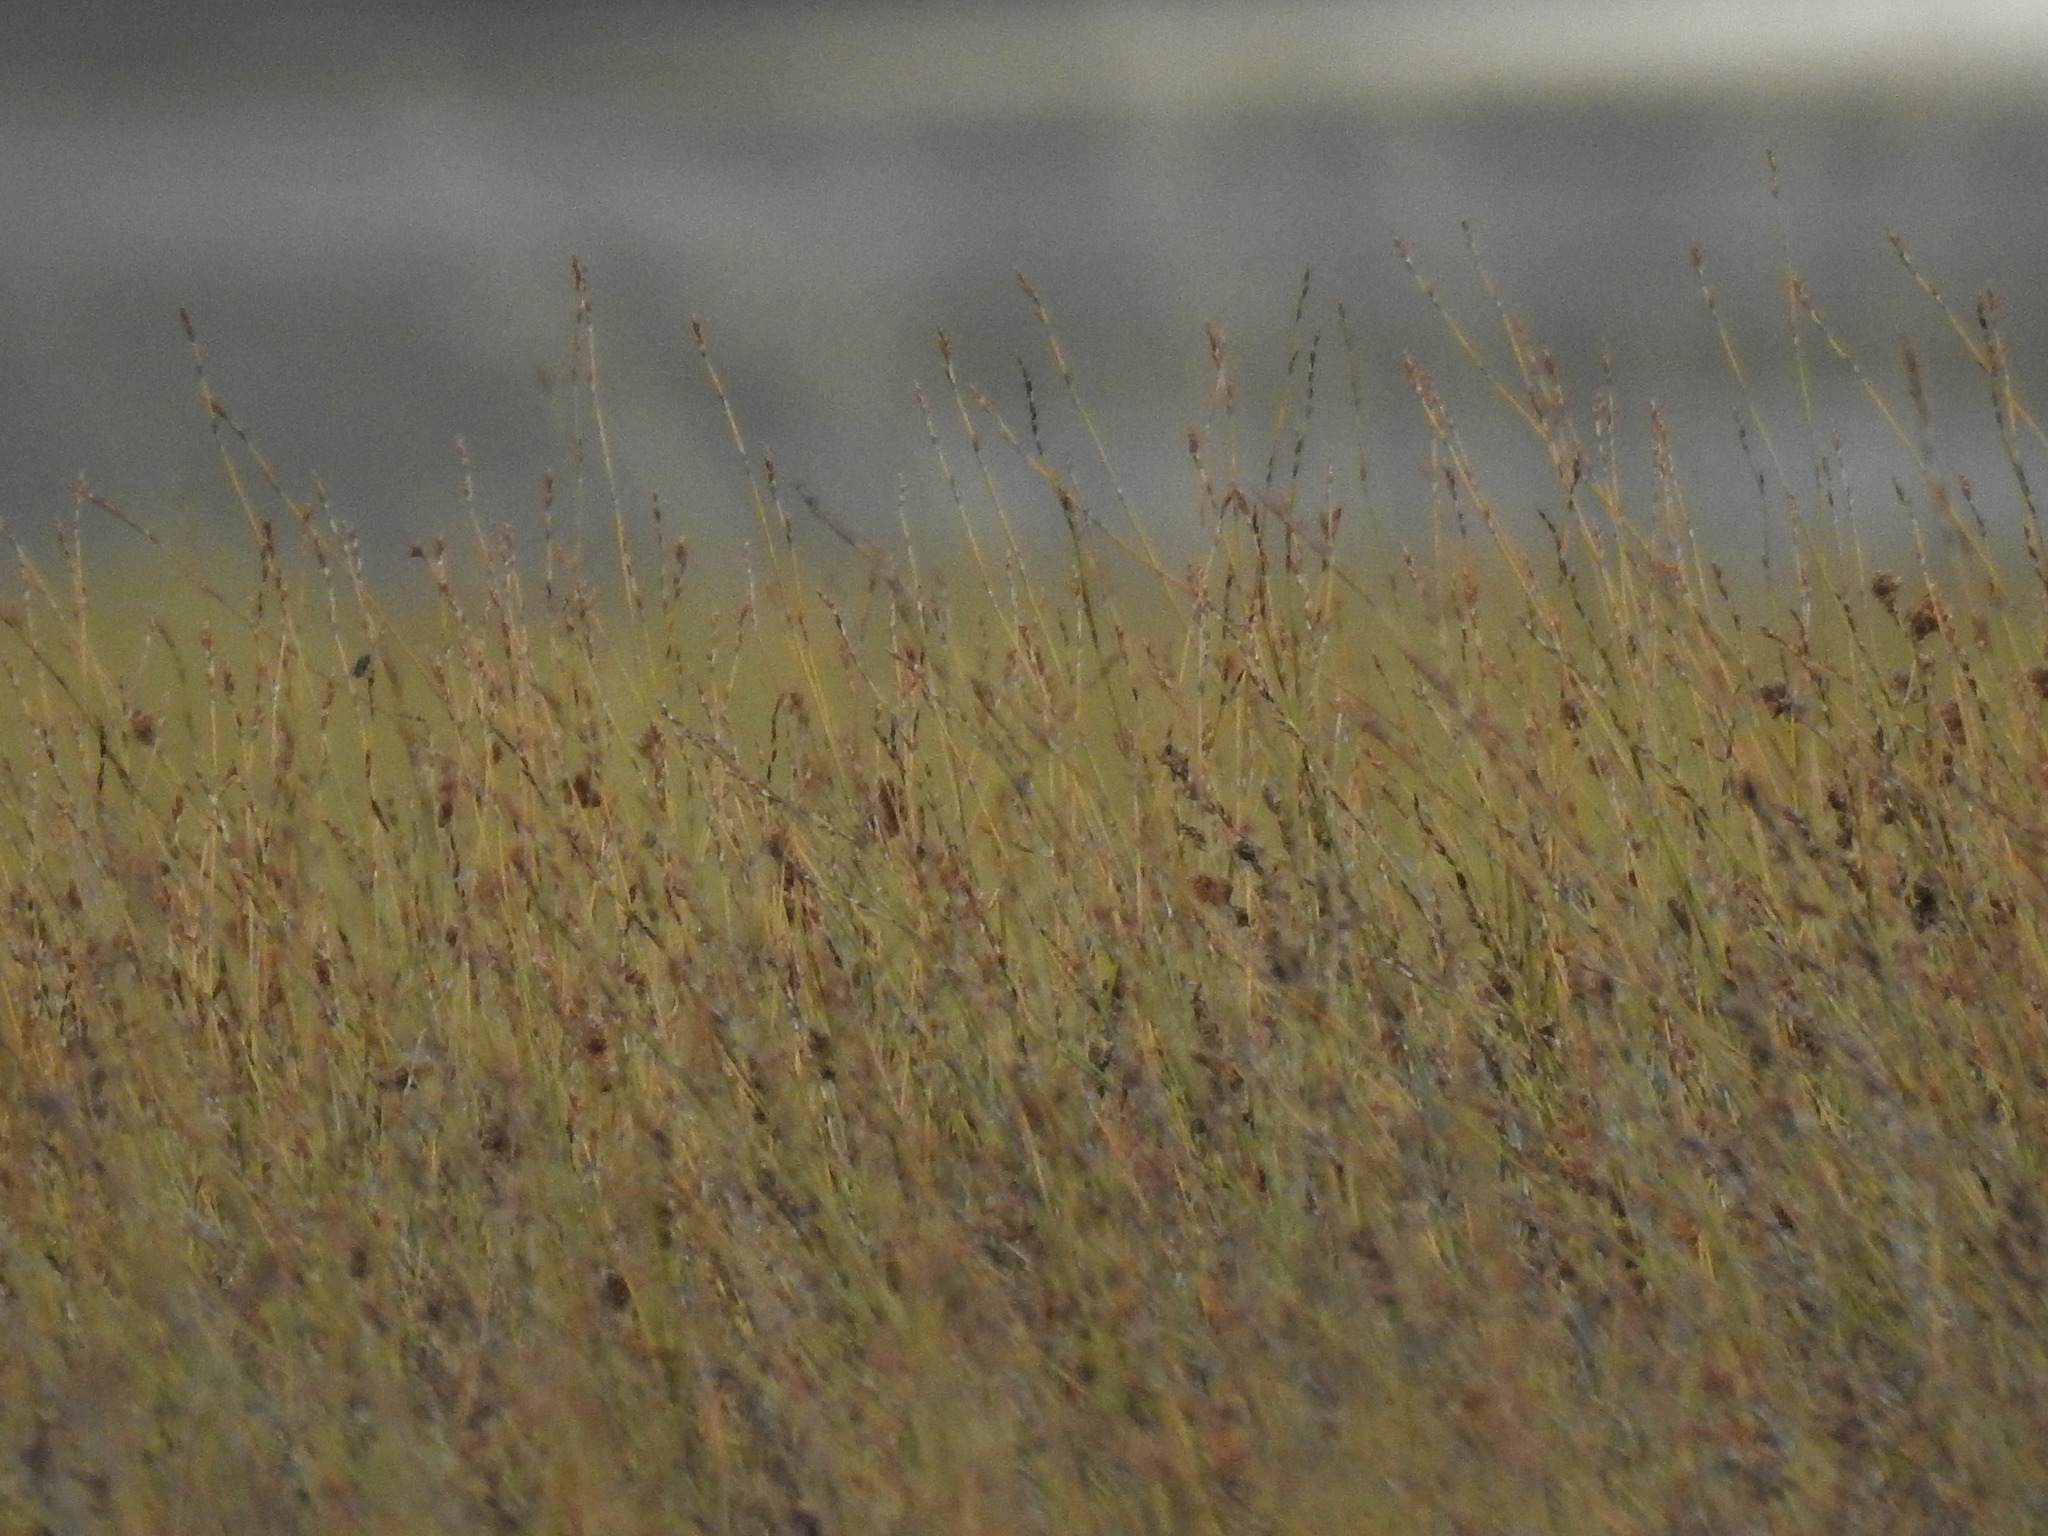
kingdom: Plantae
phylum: Tracheophyta
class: Liliopsida
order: Poales
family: Restionaceae
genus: Apodasmia
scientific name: Apodasmia similis
